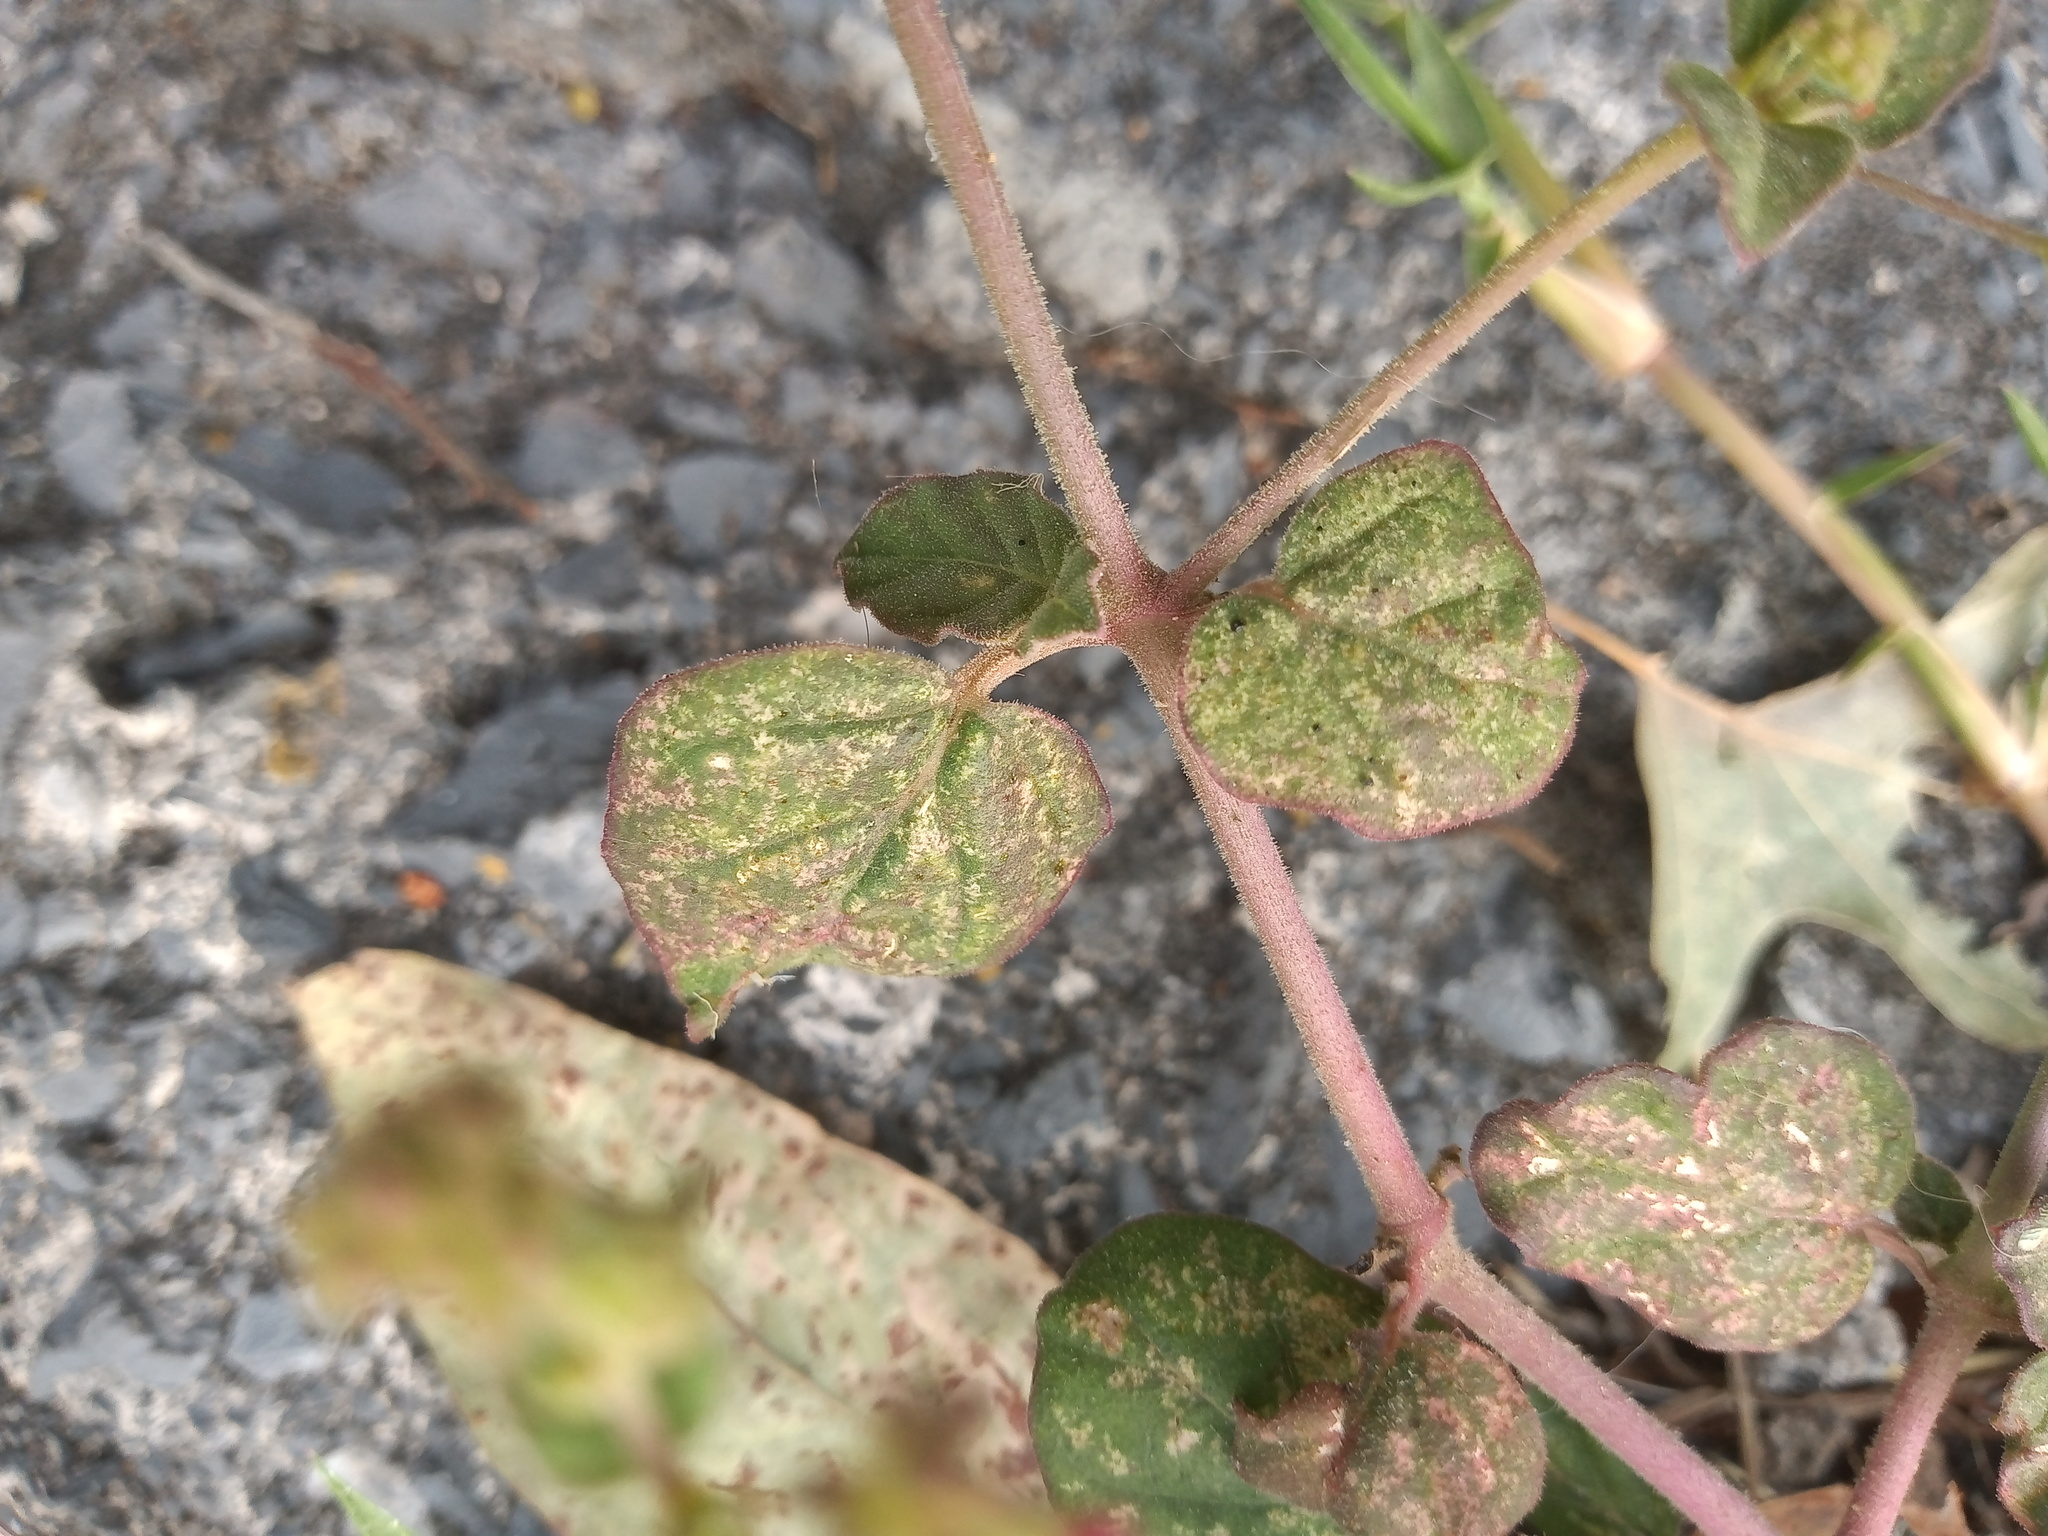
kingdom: Plantae
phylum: Tracheophyta
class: Magnoliopsida
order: Caryophyllales
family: Nyctaginaceae
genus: Boerhavia
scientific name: Boerhavia coccinea
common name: Scarlet spiderling
